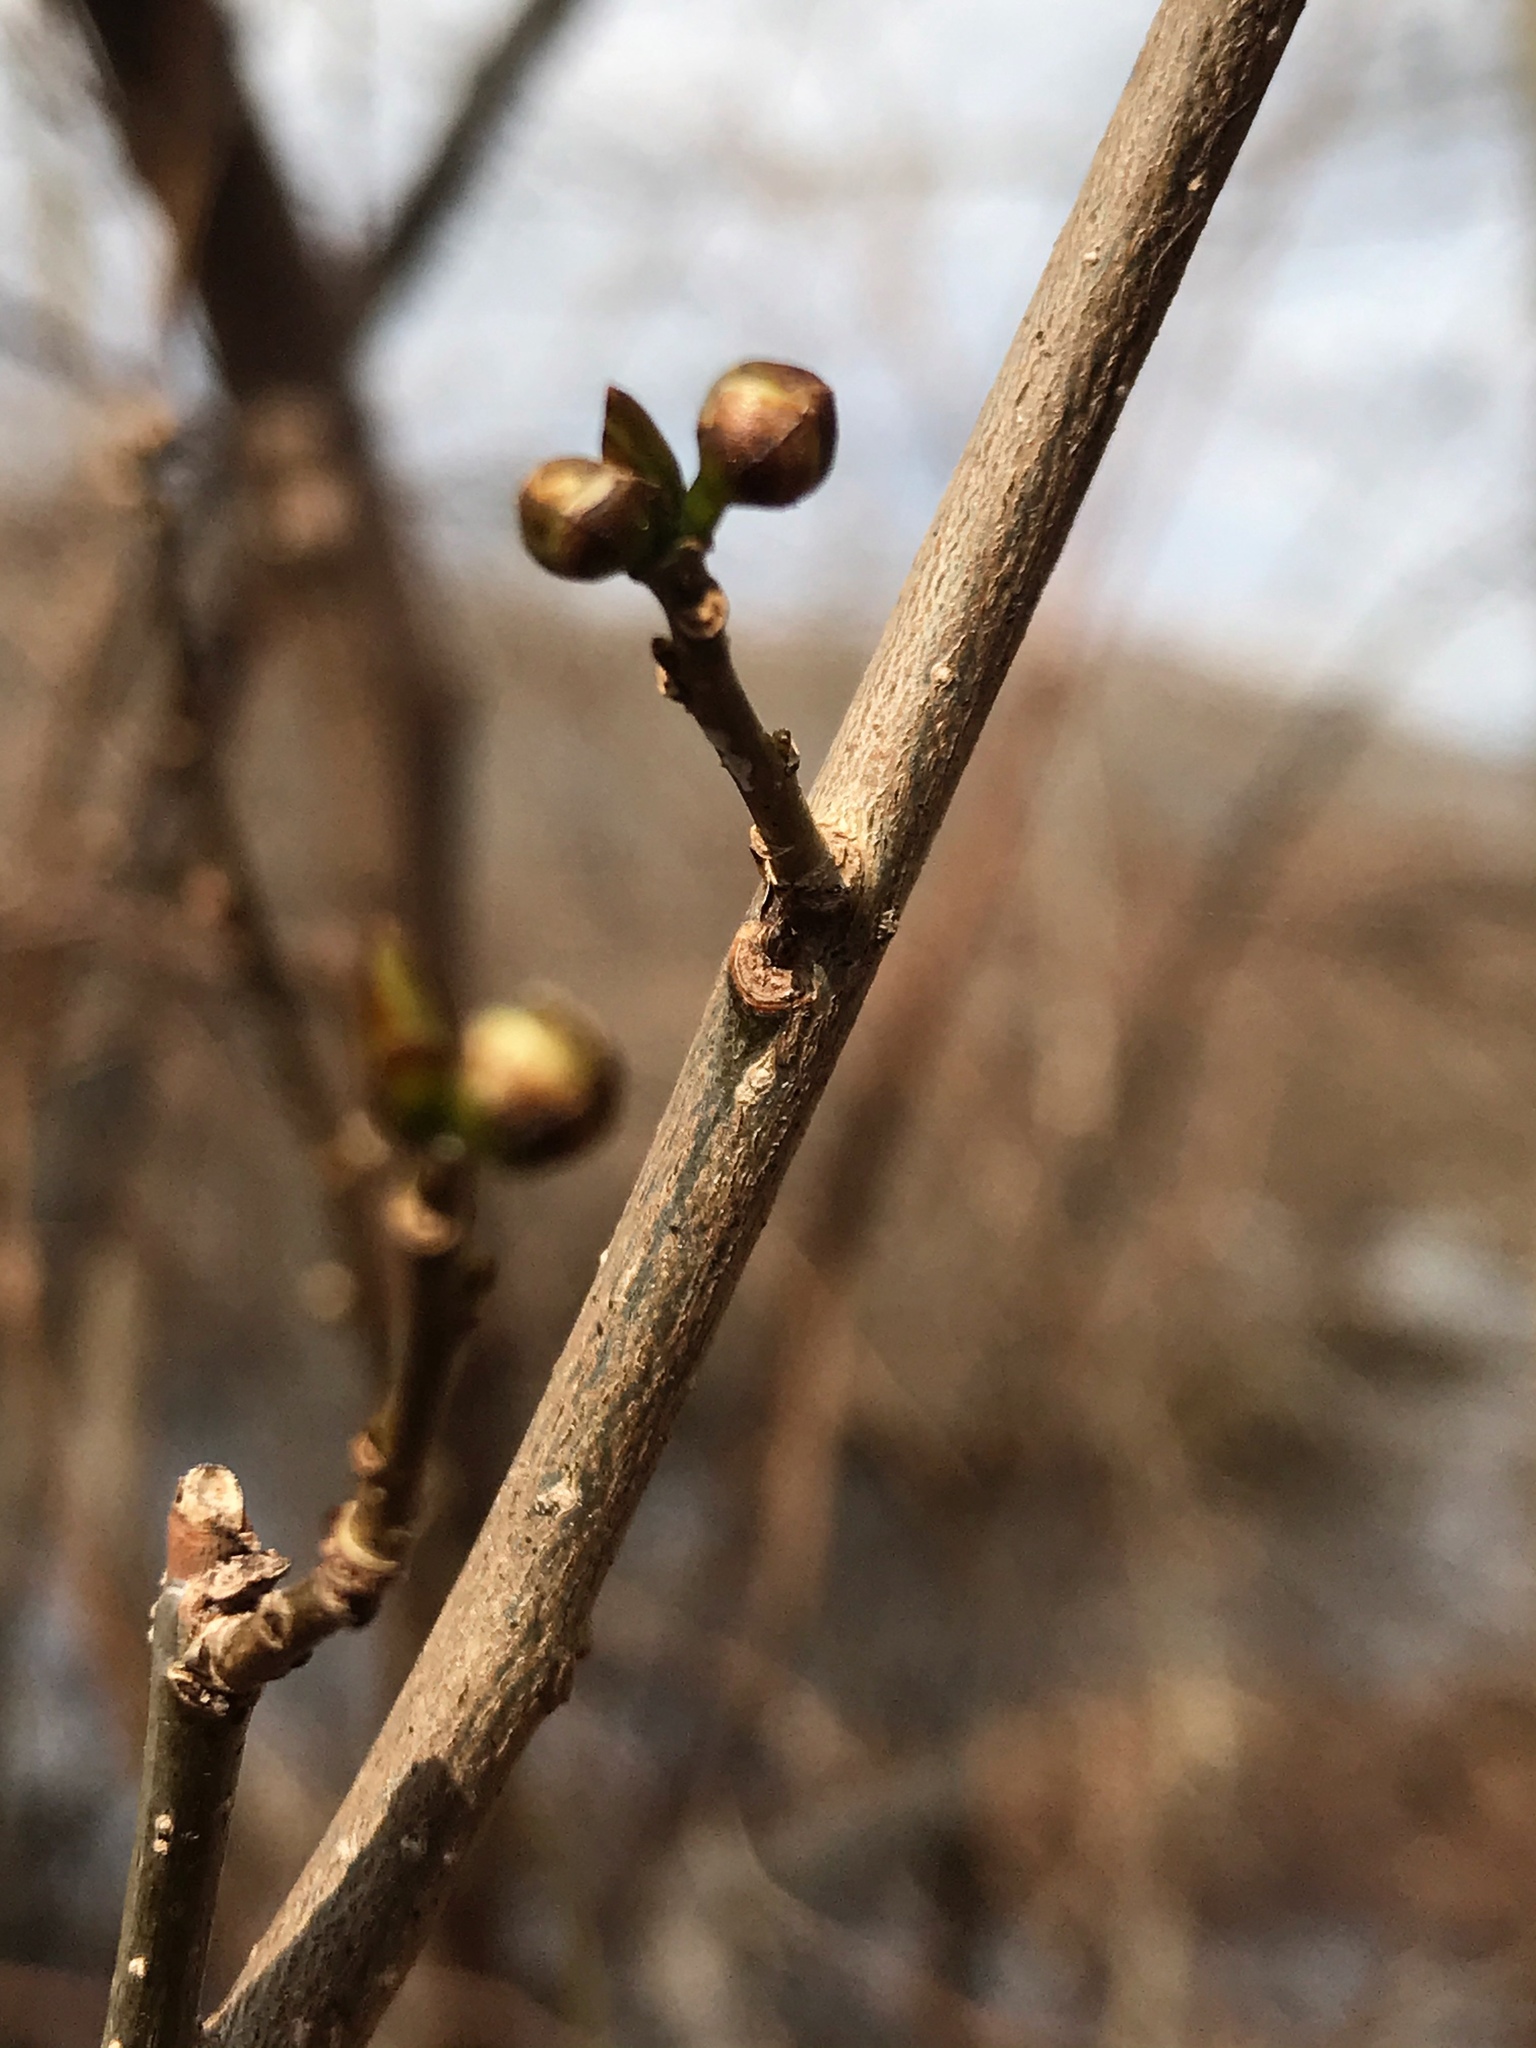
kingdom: Plantae
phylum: Tracheophyta
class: Magnoliopsida
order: Laurales
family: Lauraceae
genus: Lindera
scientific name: Lindera benzoin
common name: Spicebush
